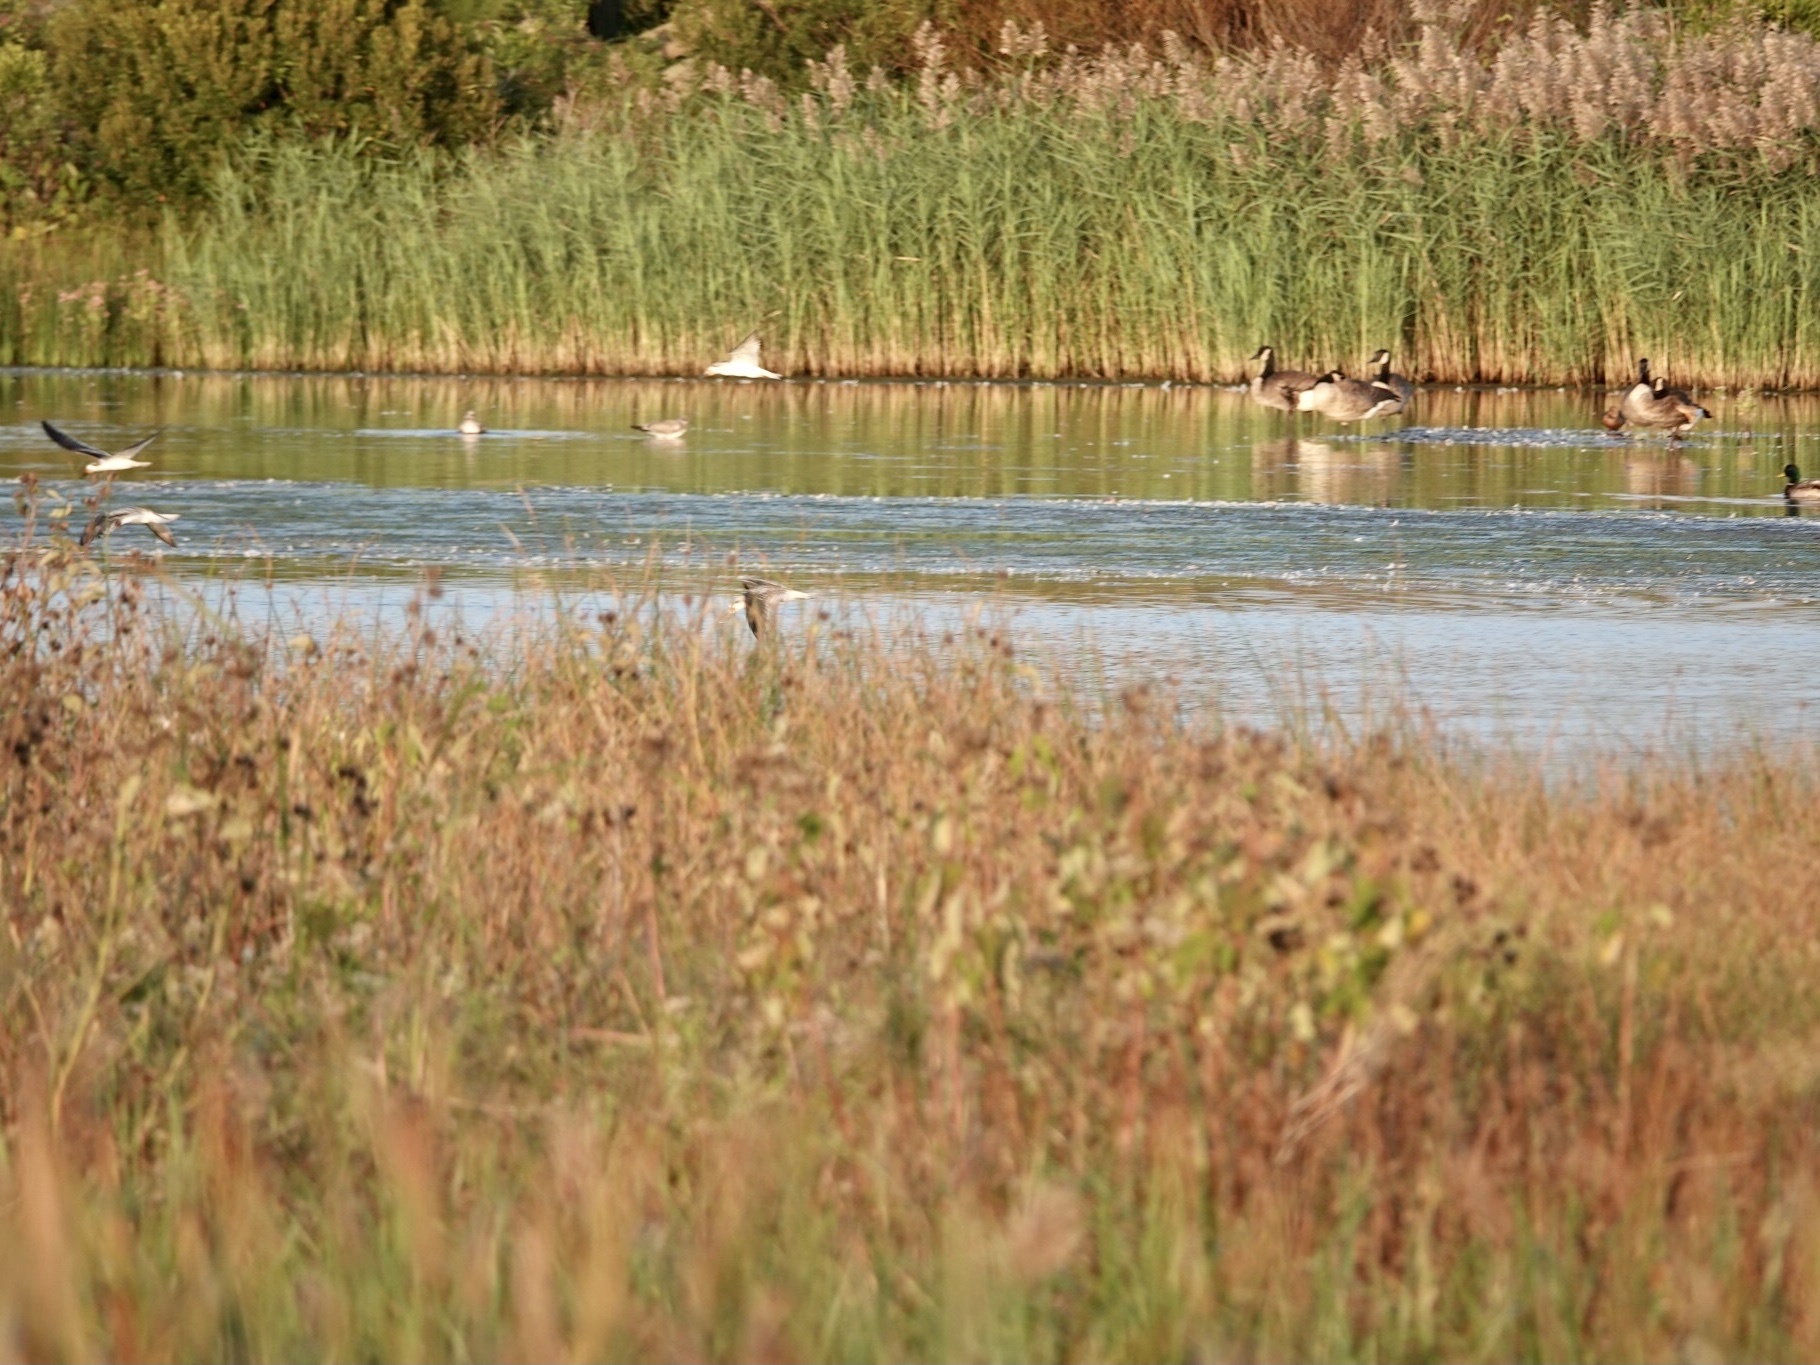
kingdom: Animalia
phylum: Chordata
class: Aves
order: Anseriformes
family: Anatidae
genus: Branta
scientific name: Branta canadensis
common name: Canada goose
